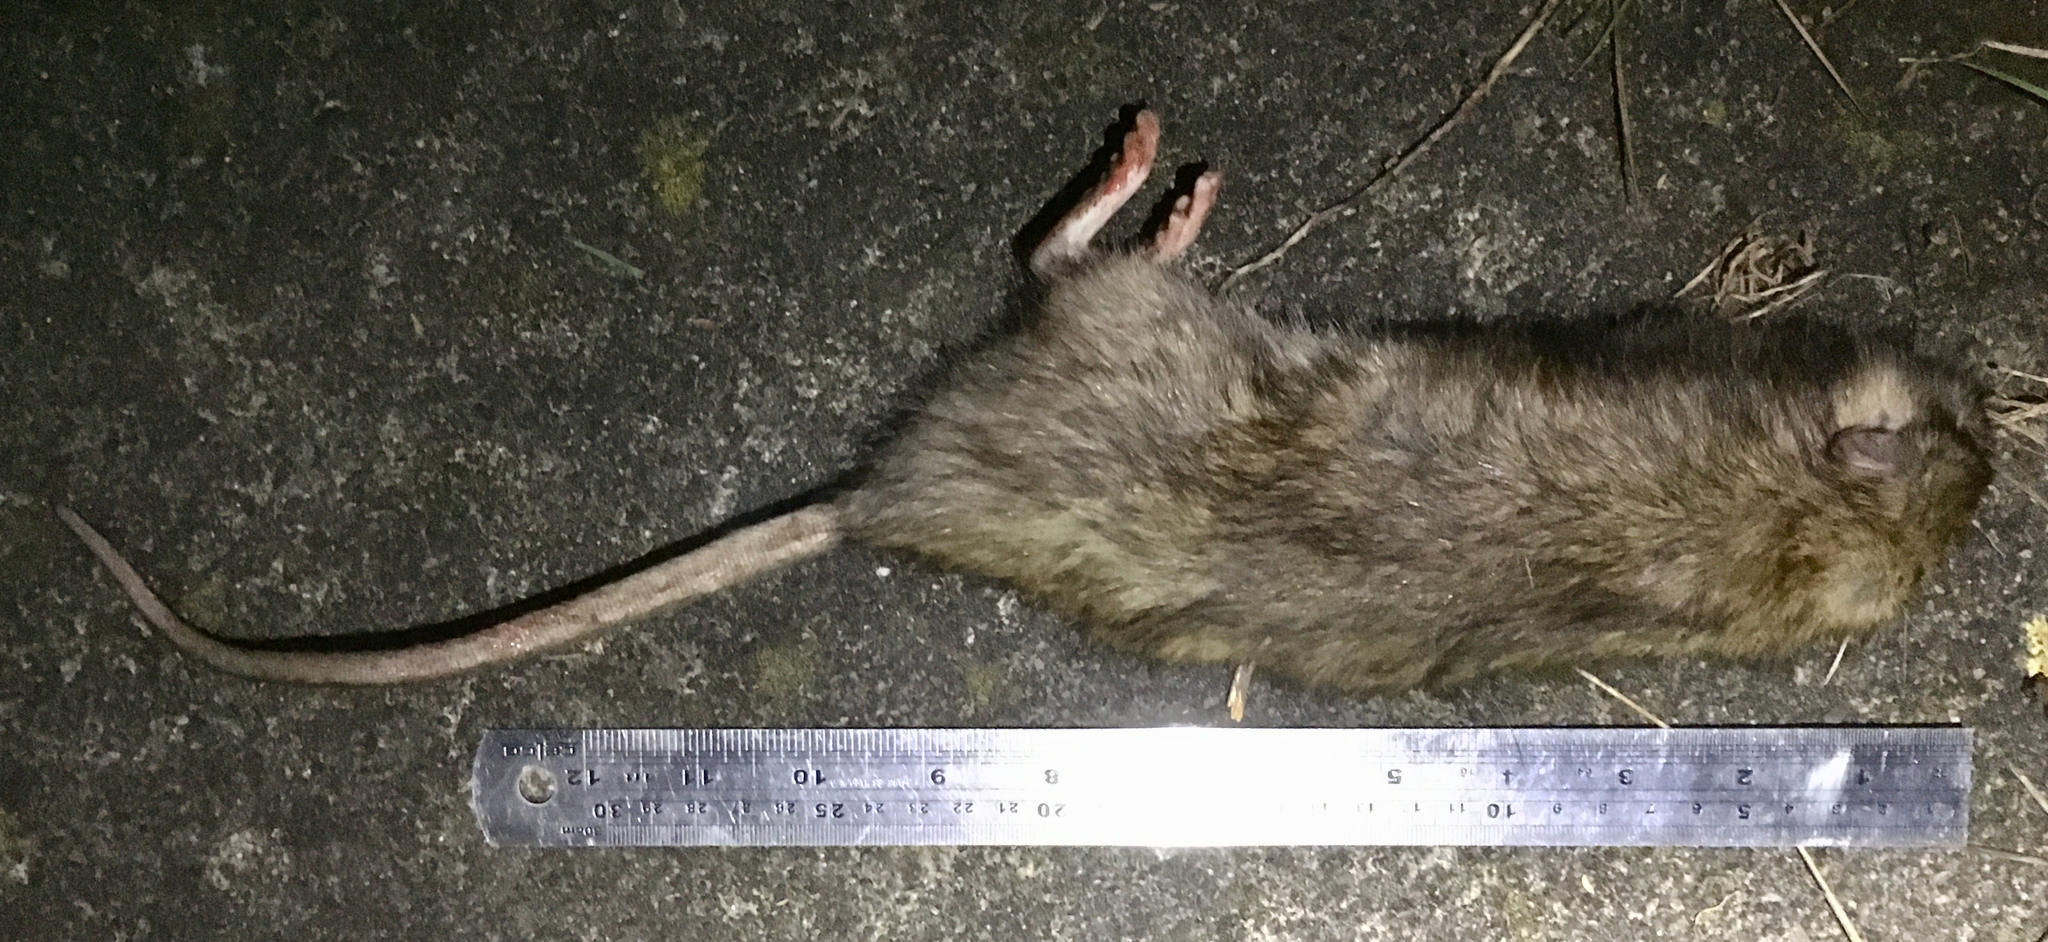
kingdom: Animalia
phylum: Chordata
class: Mammalia
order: Rodentia
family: Muridae
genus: Rattus
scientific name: Rattus rattus
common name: Black rat
